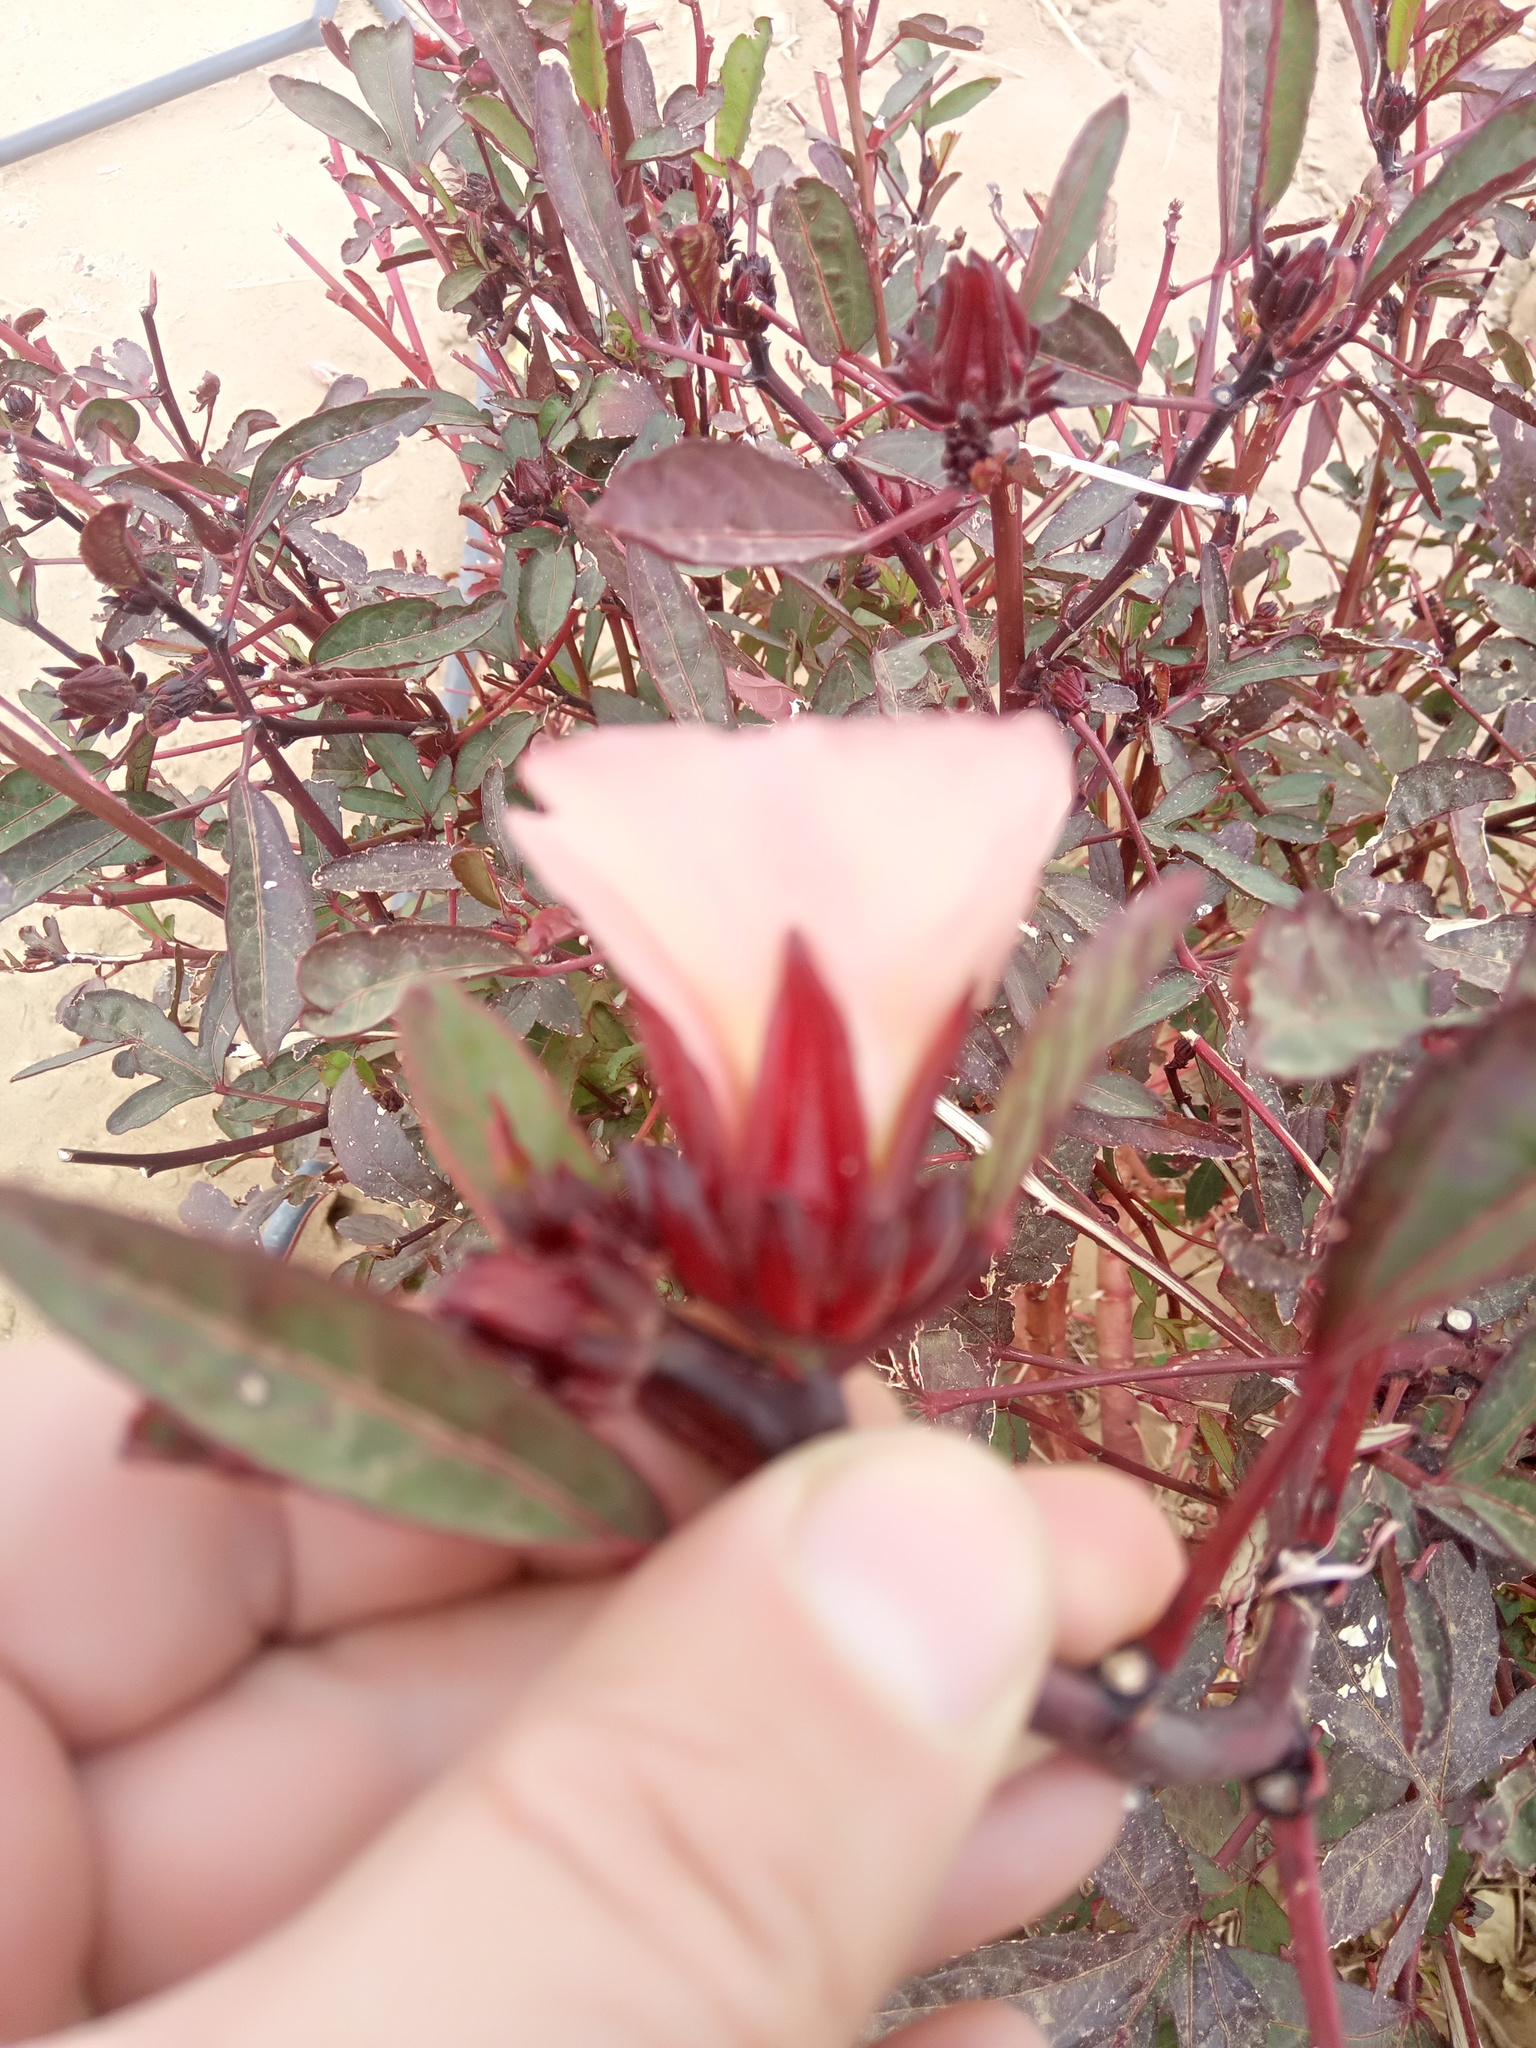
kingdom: Plantae
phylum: Tracheophyta
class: Magnoliopsida
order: Malvales
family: Malvaceae
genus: Hibiscus
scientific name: Hibiscus sabdariffa
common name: Roselle
